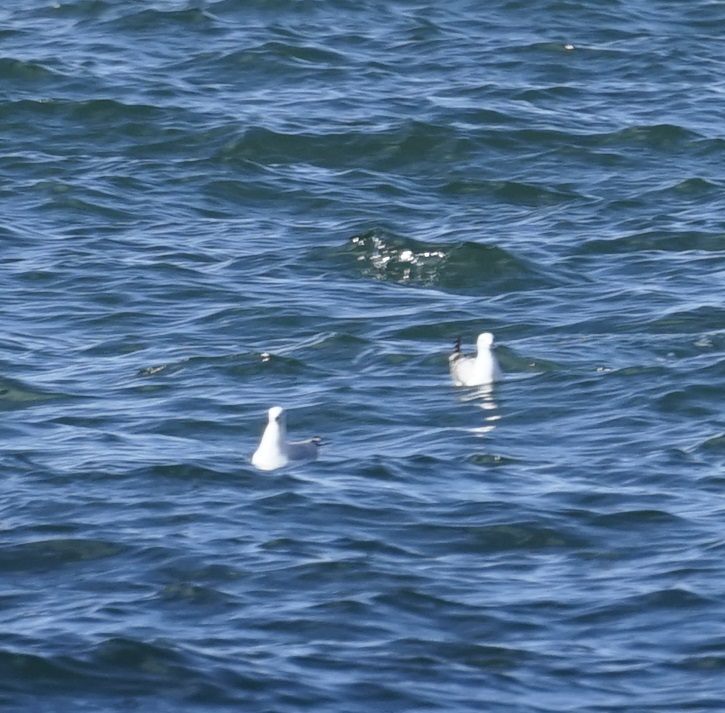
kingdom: Animalia
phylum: Chordata
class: Aves
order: Charadriiformes
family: Laridae
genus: Chroicocephalus
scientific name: Chroicocephalus novaehollandiae
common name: Silver gull
